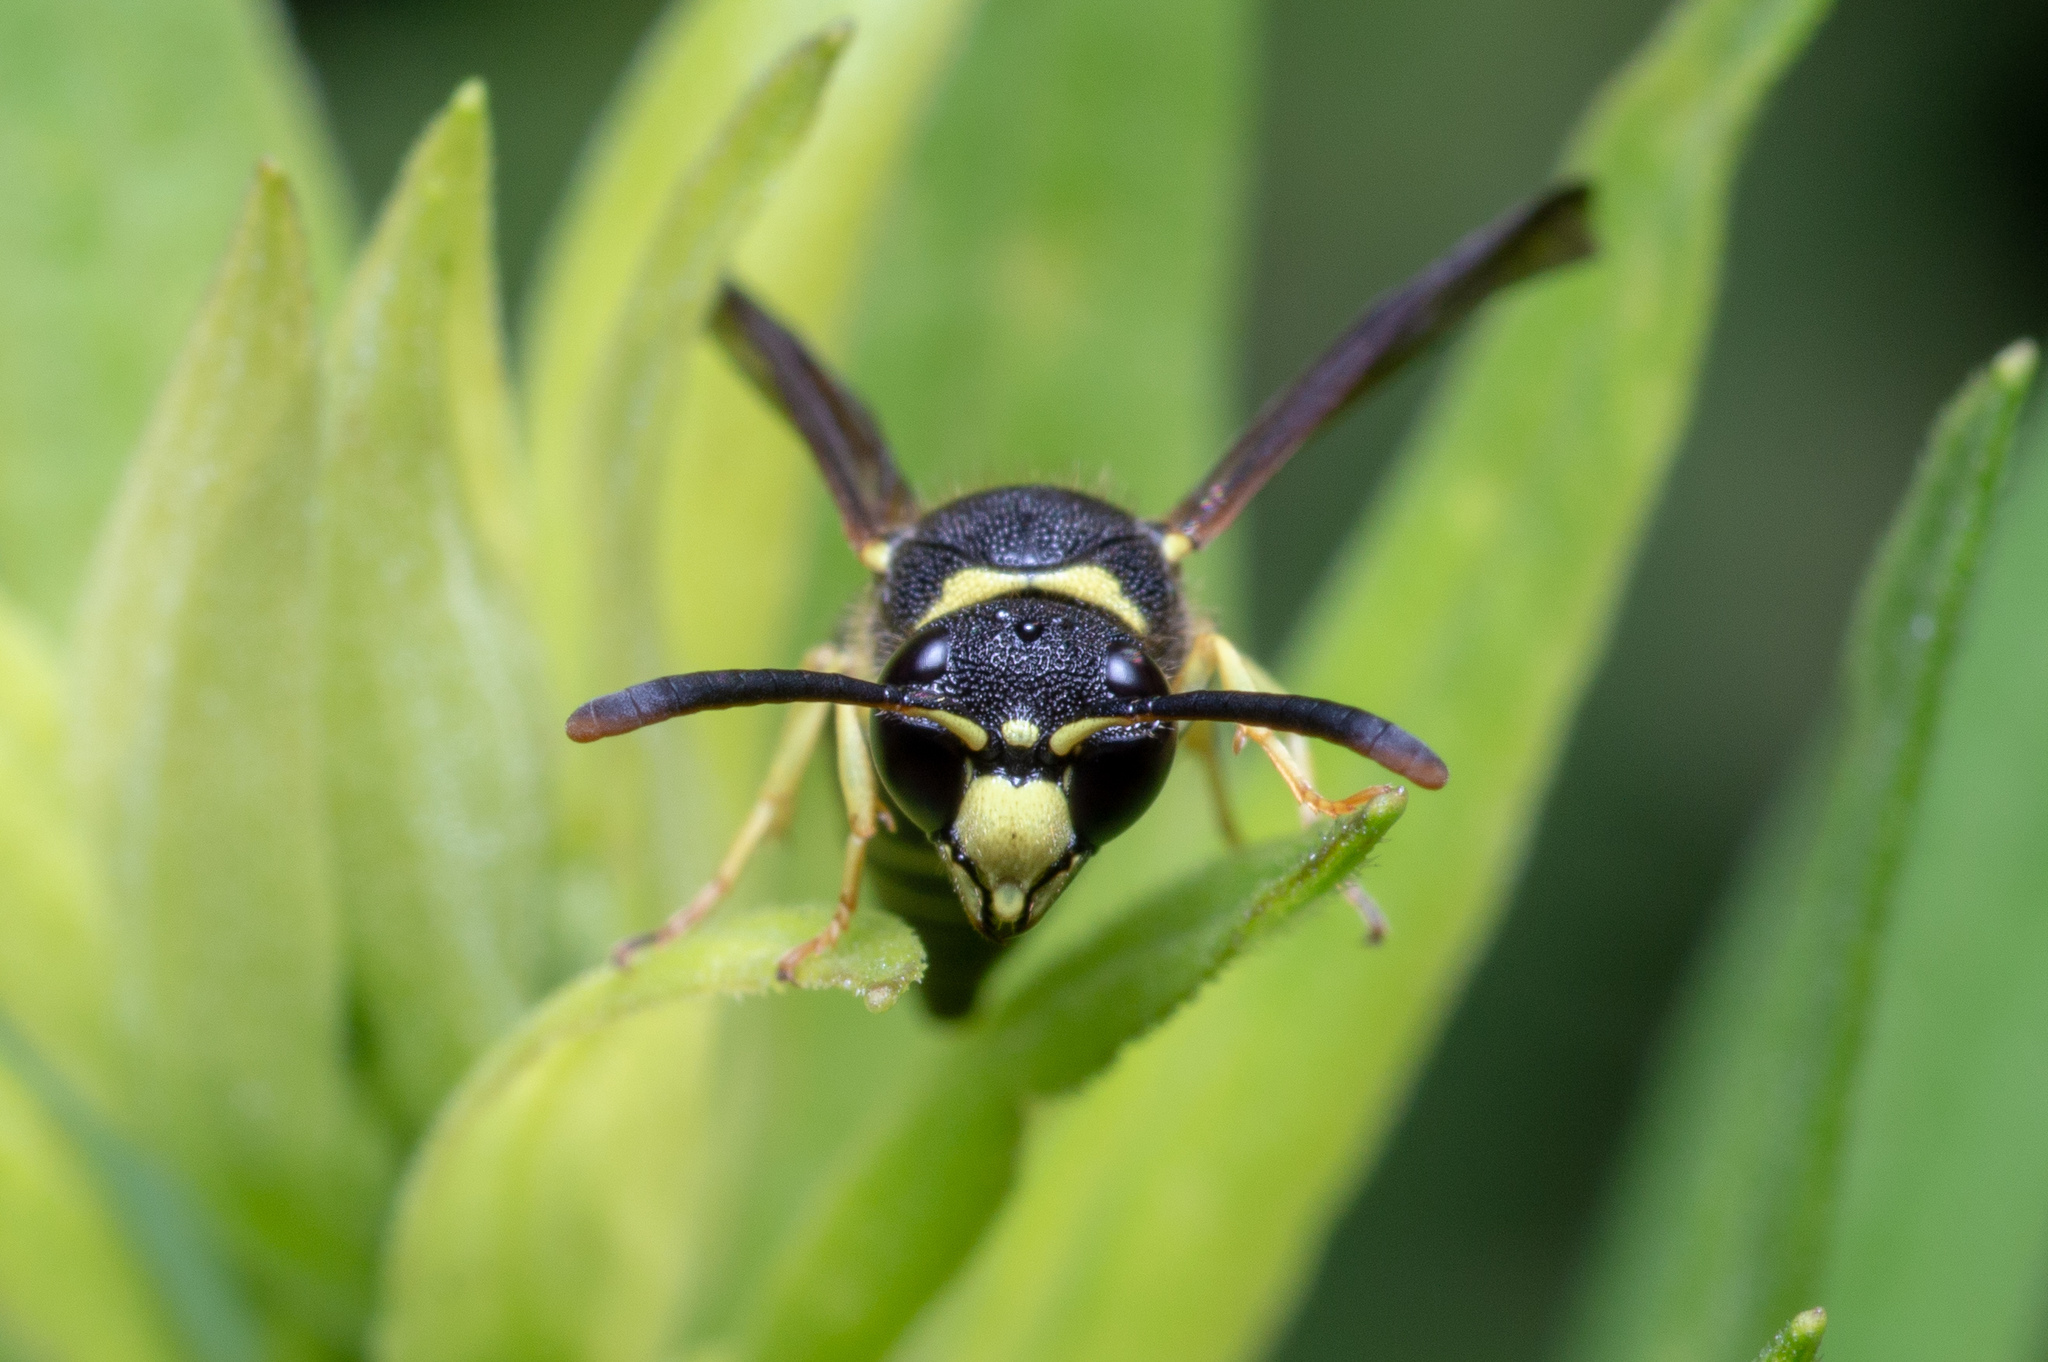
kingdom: Animalia
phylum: Arthropoda
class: Insecta
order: Hymenoptera
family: Vespidae
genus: Ancistrocerus
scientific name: Ancistrocerus
